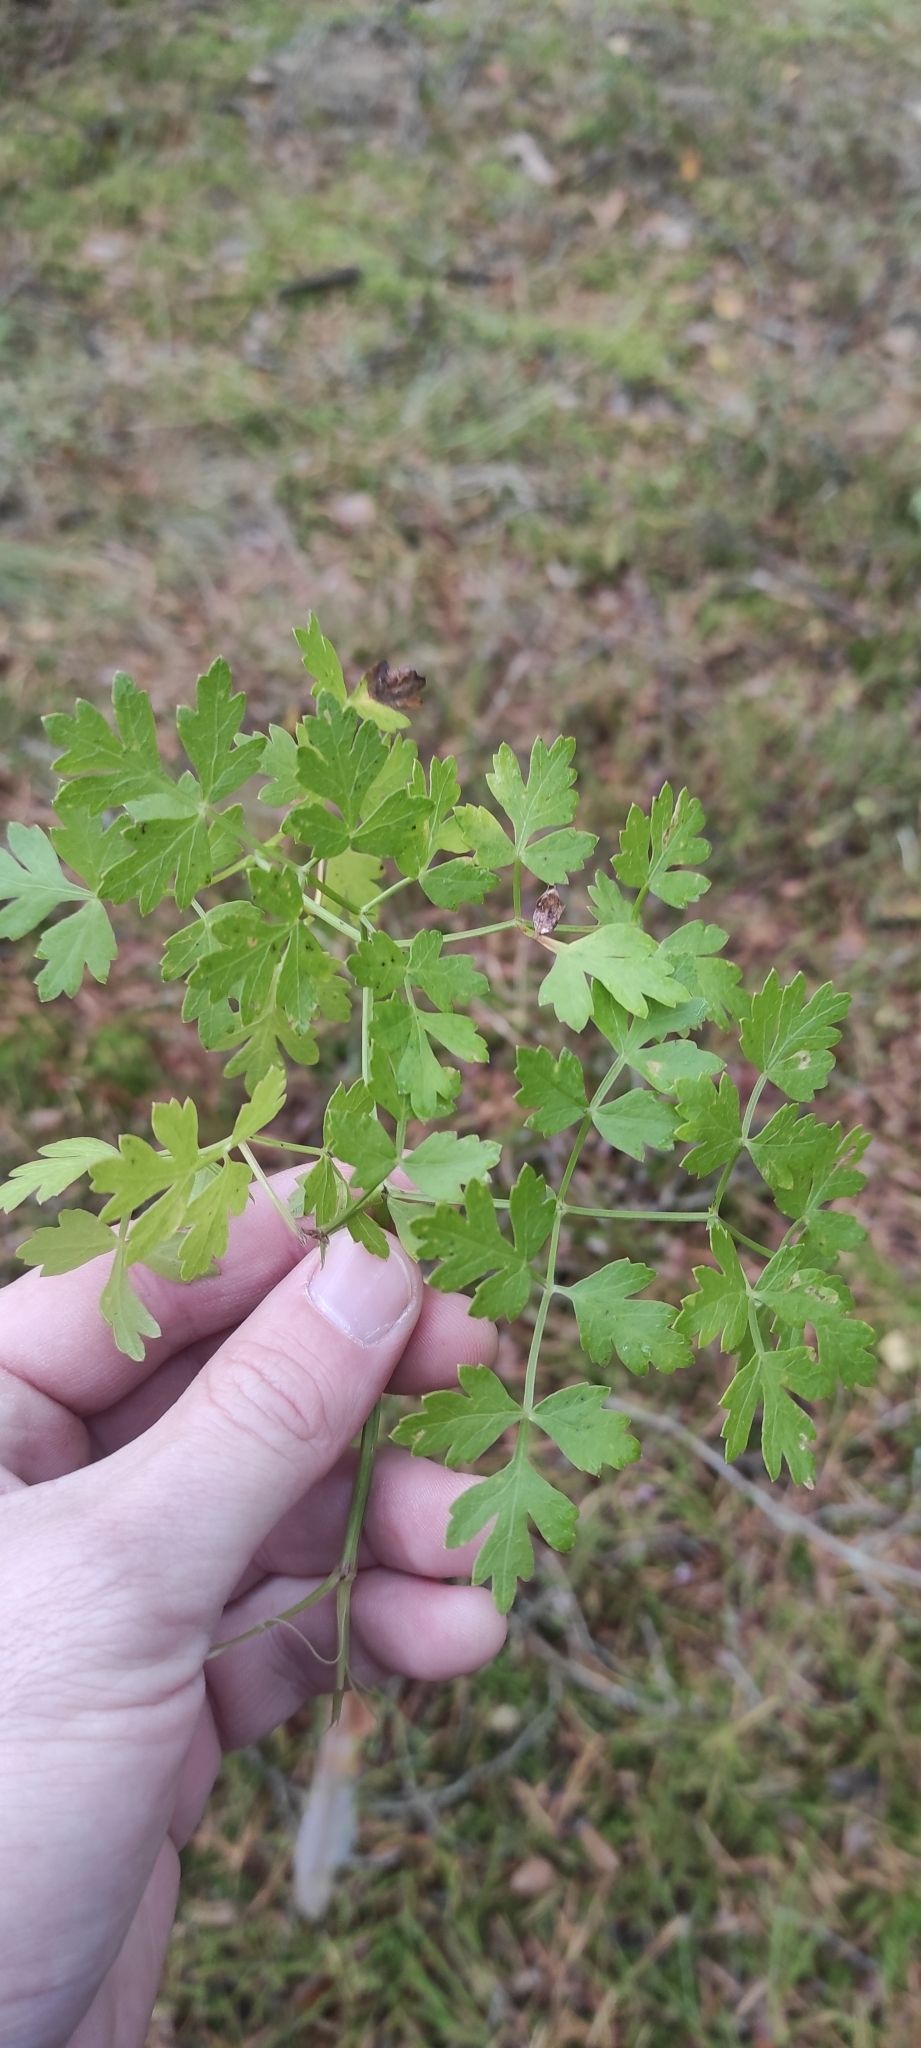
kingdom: Plantae
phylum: Tracheophyta
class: Magnoliopsida
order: Apiales
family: Apiaceae
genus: Oreoselinum
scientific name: Oreoselinum nigrum
